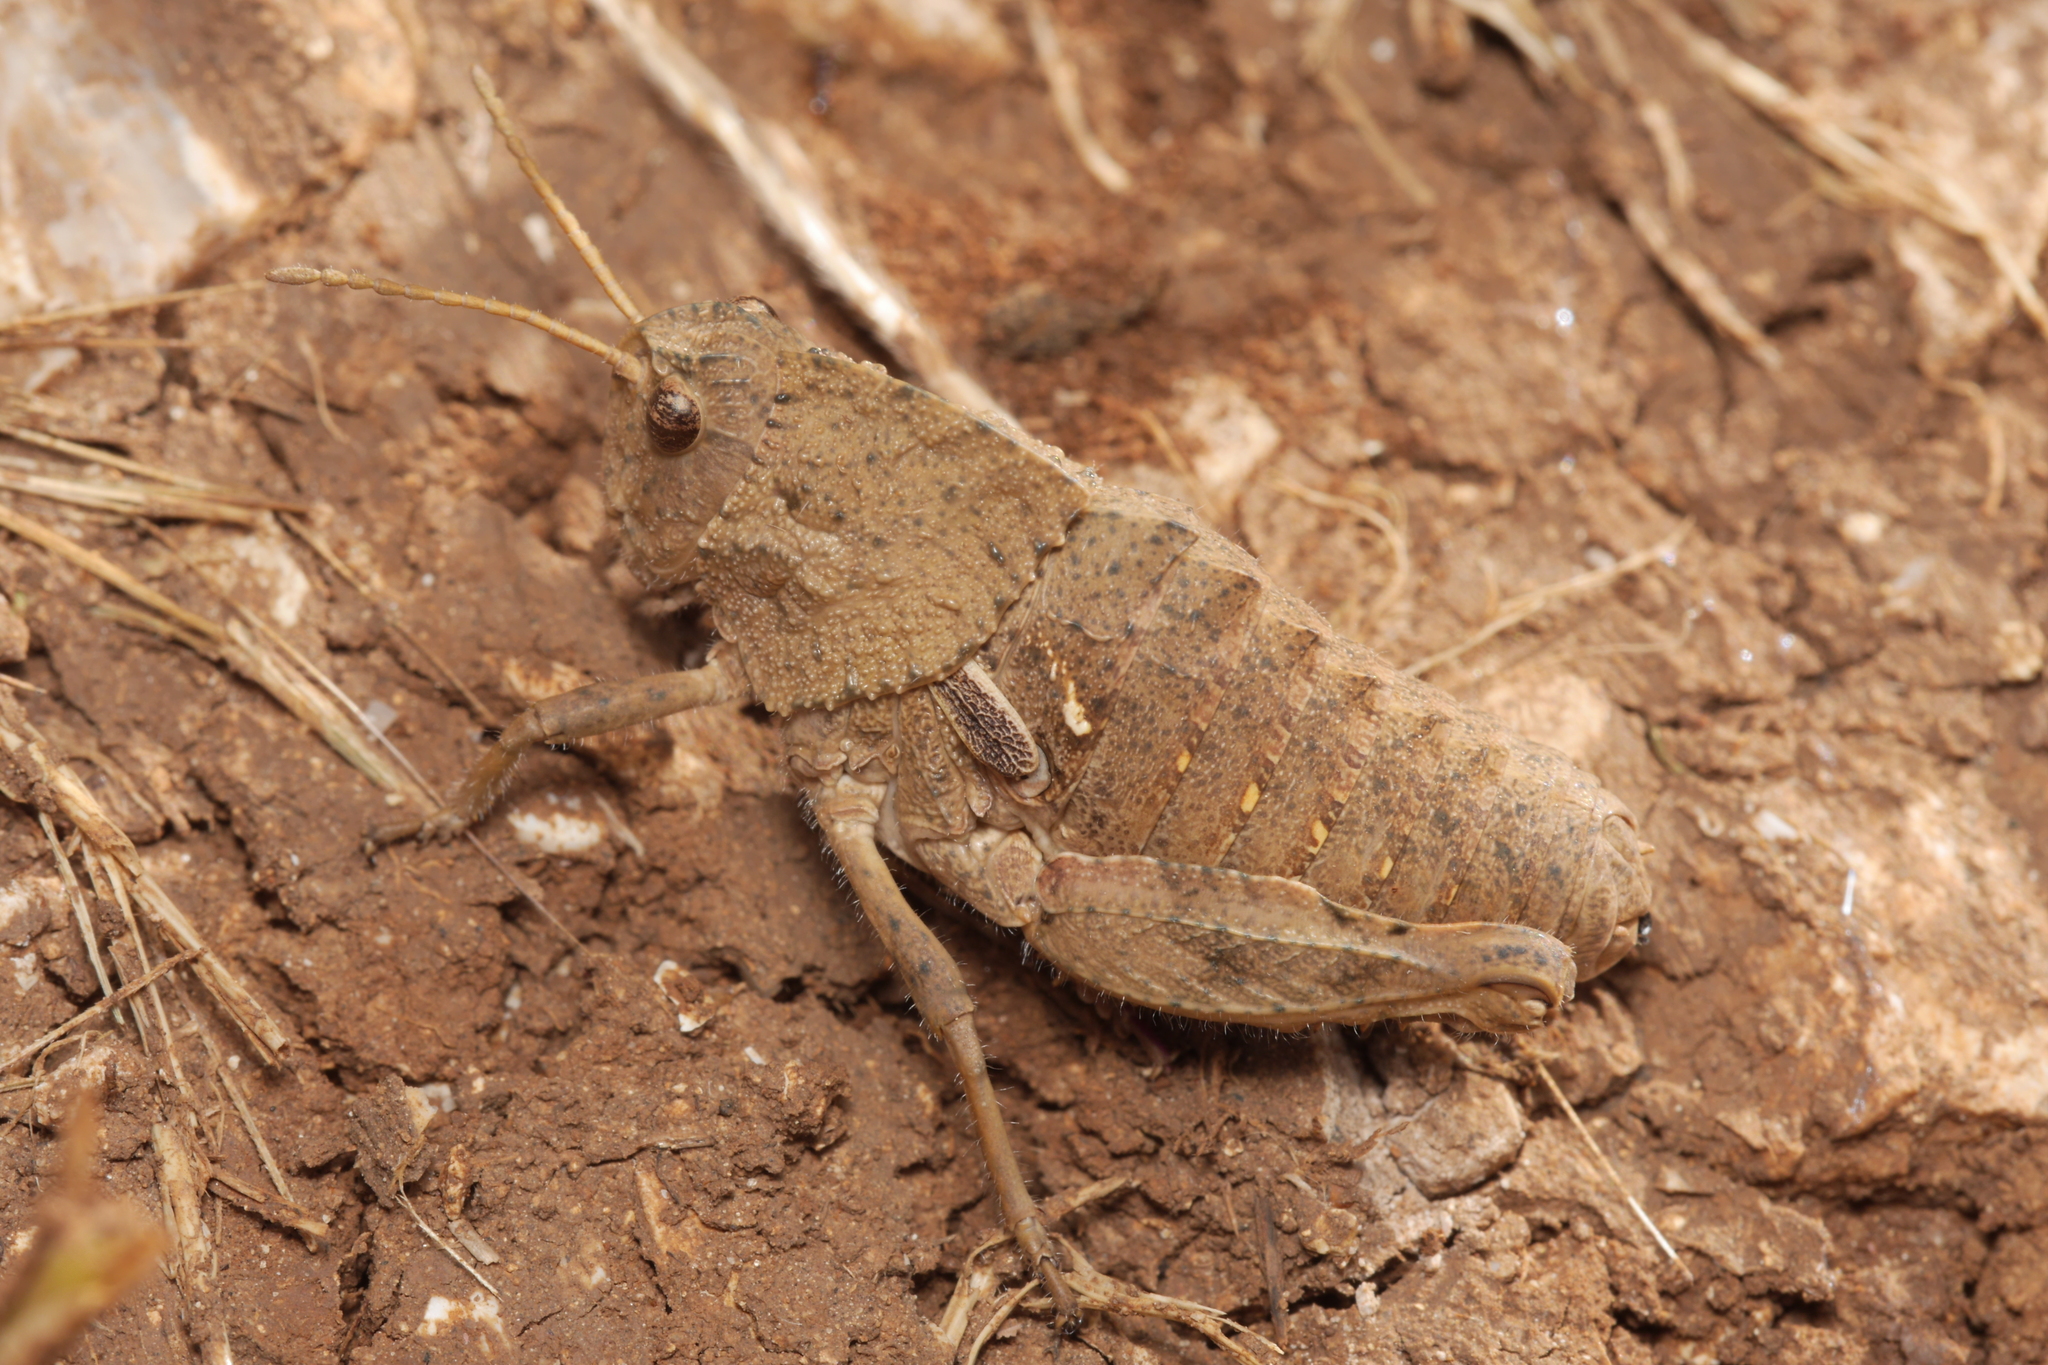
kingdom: Animalia
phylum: Arthropoda
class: Insecta
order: Orthoptera
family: Pamphagidae
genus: Ocneridia
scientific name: Ocneridia nigropunctata
